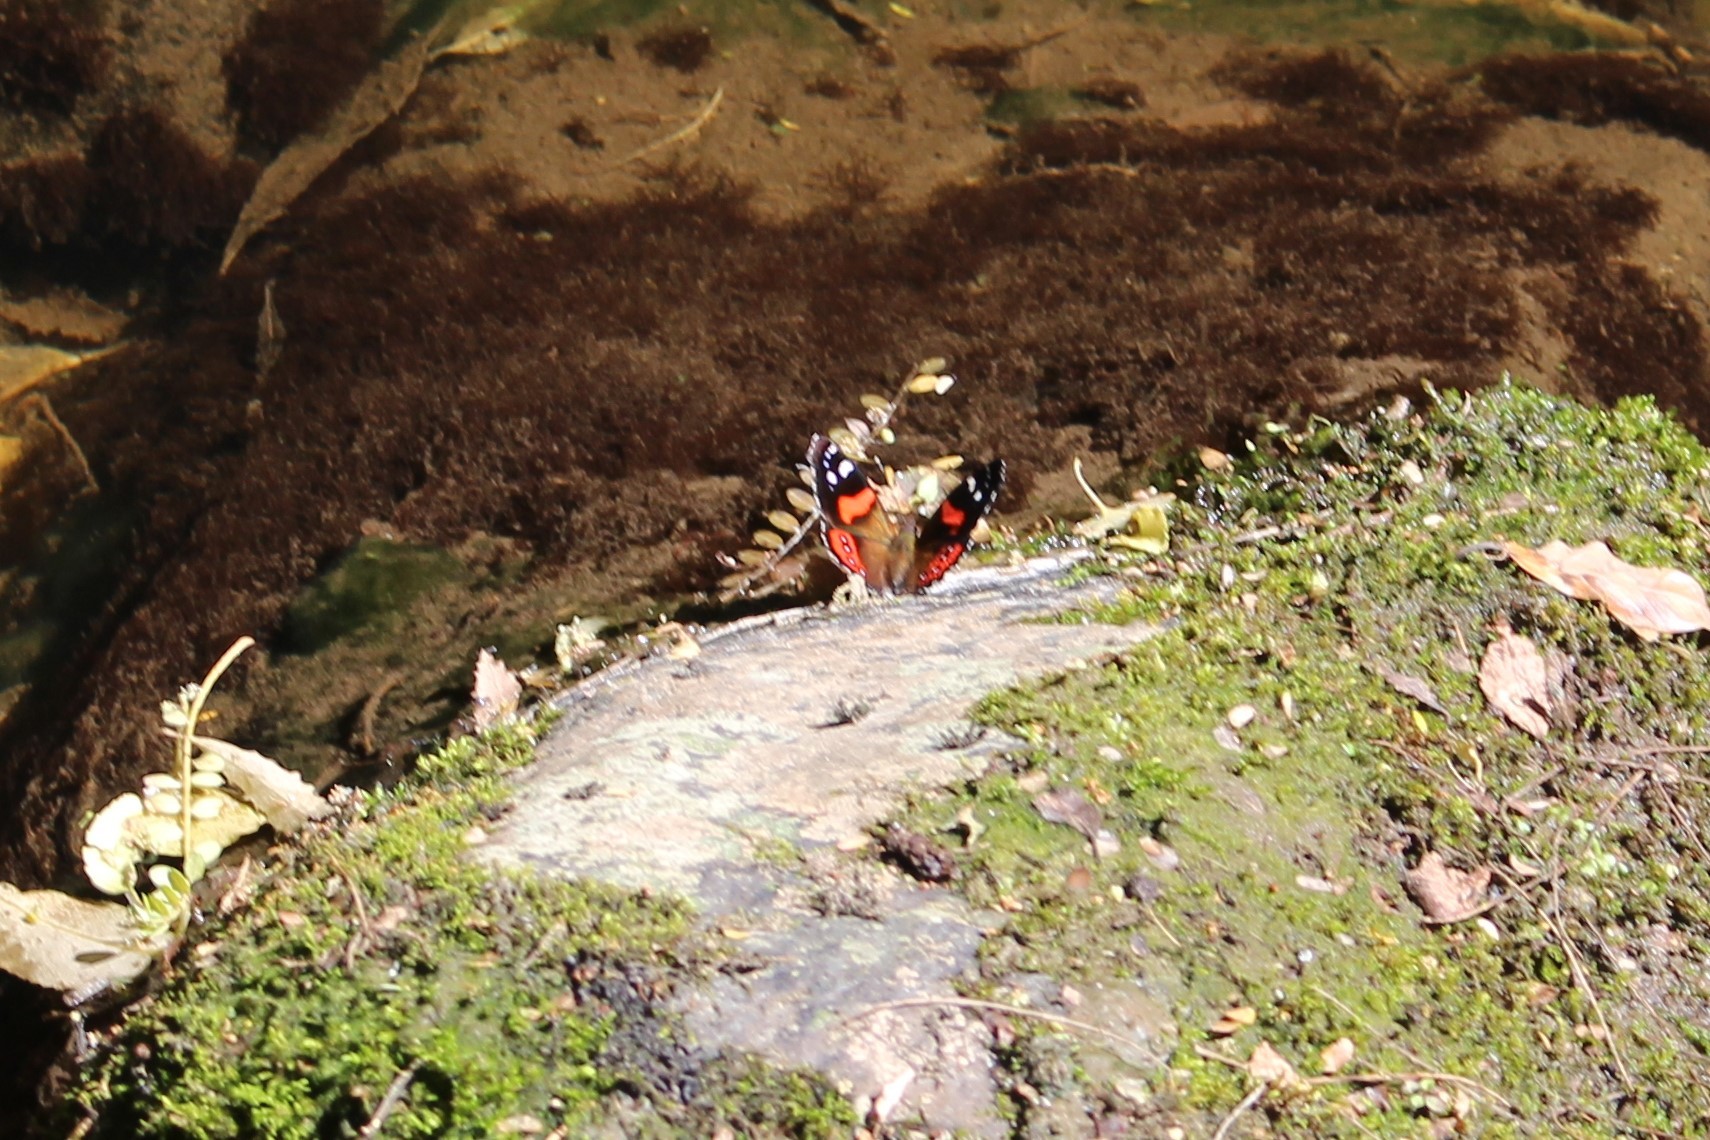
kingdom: Animalia
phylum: Arthropoda
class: Insecta
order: Lepidoptera
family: Nymphalidae
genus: Vanessa
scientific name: Vanessa gonerilla
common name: New zealand red admiral
